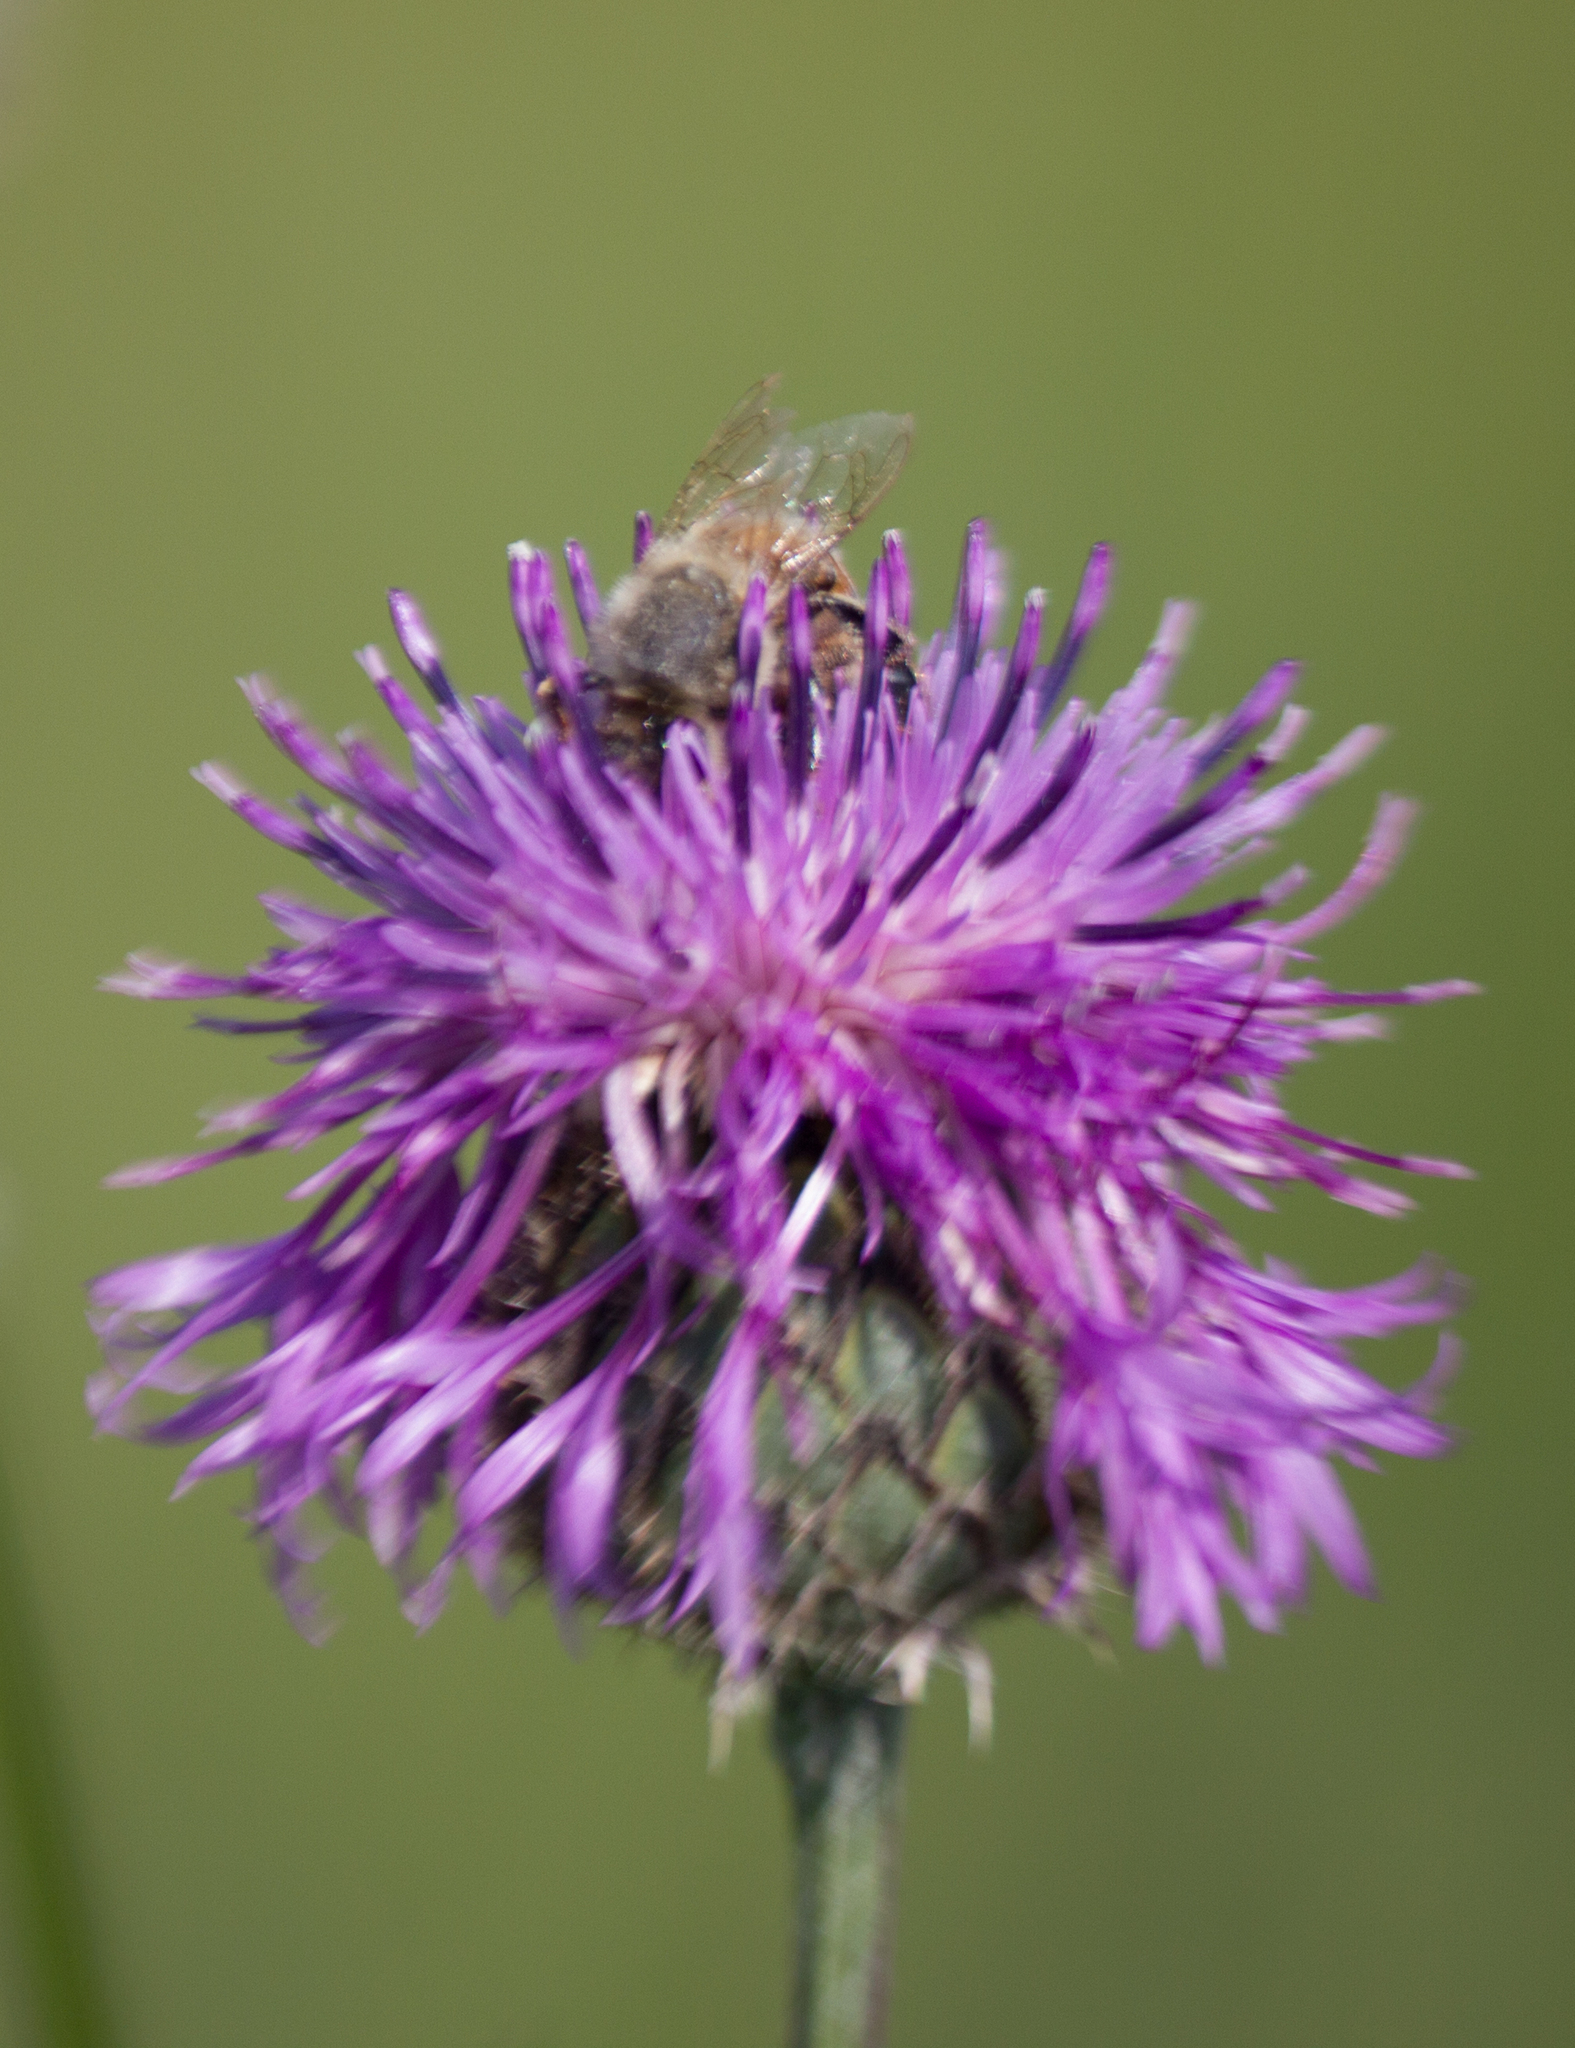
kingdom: Animalia
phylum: Arthropoda
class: Insecta
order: Hymenoptera
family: Apidae
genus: Apis
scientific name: Apis mellifera
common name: Honey bee
